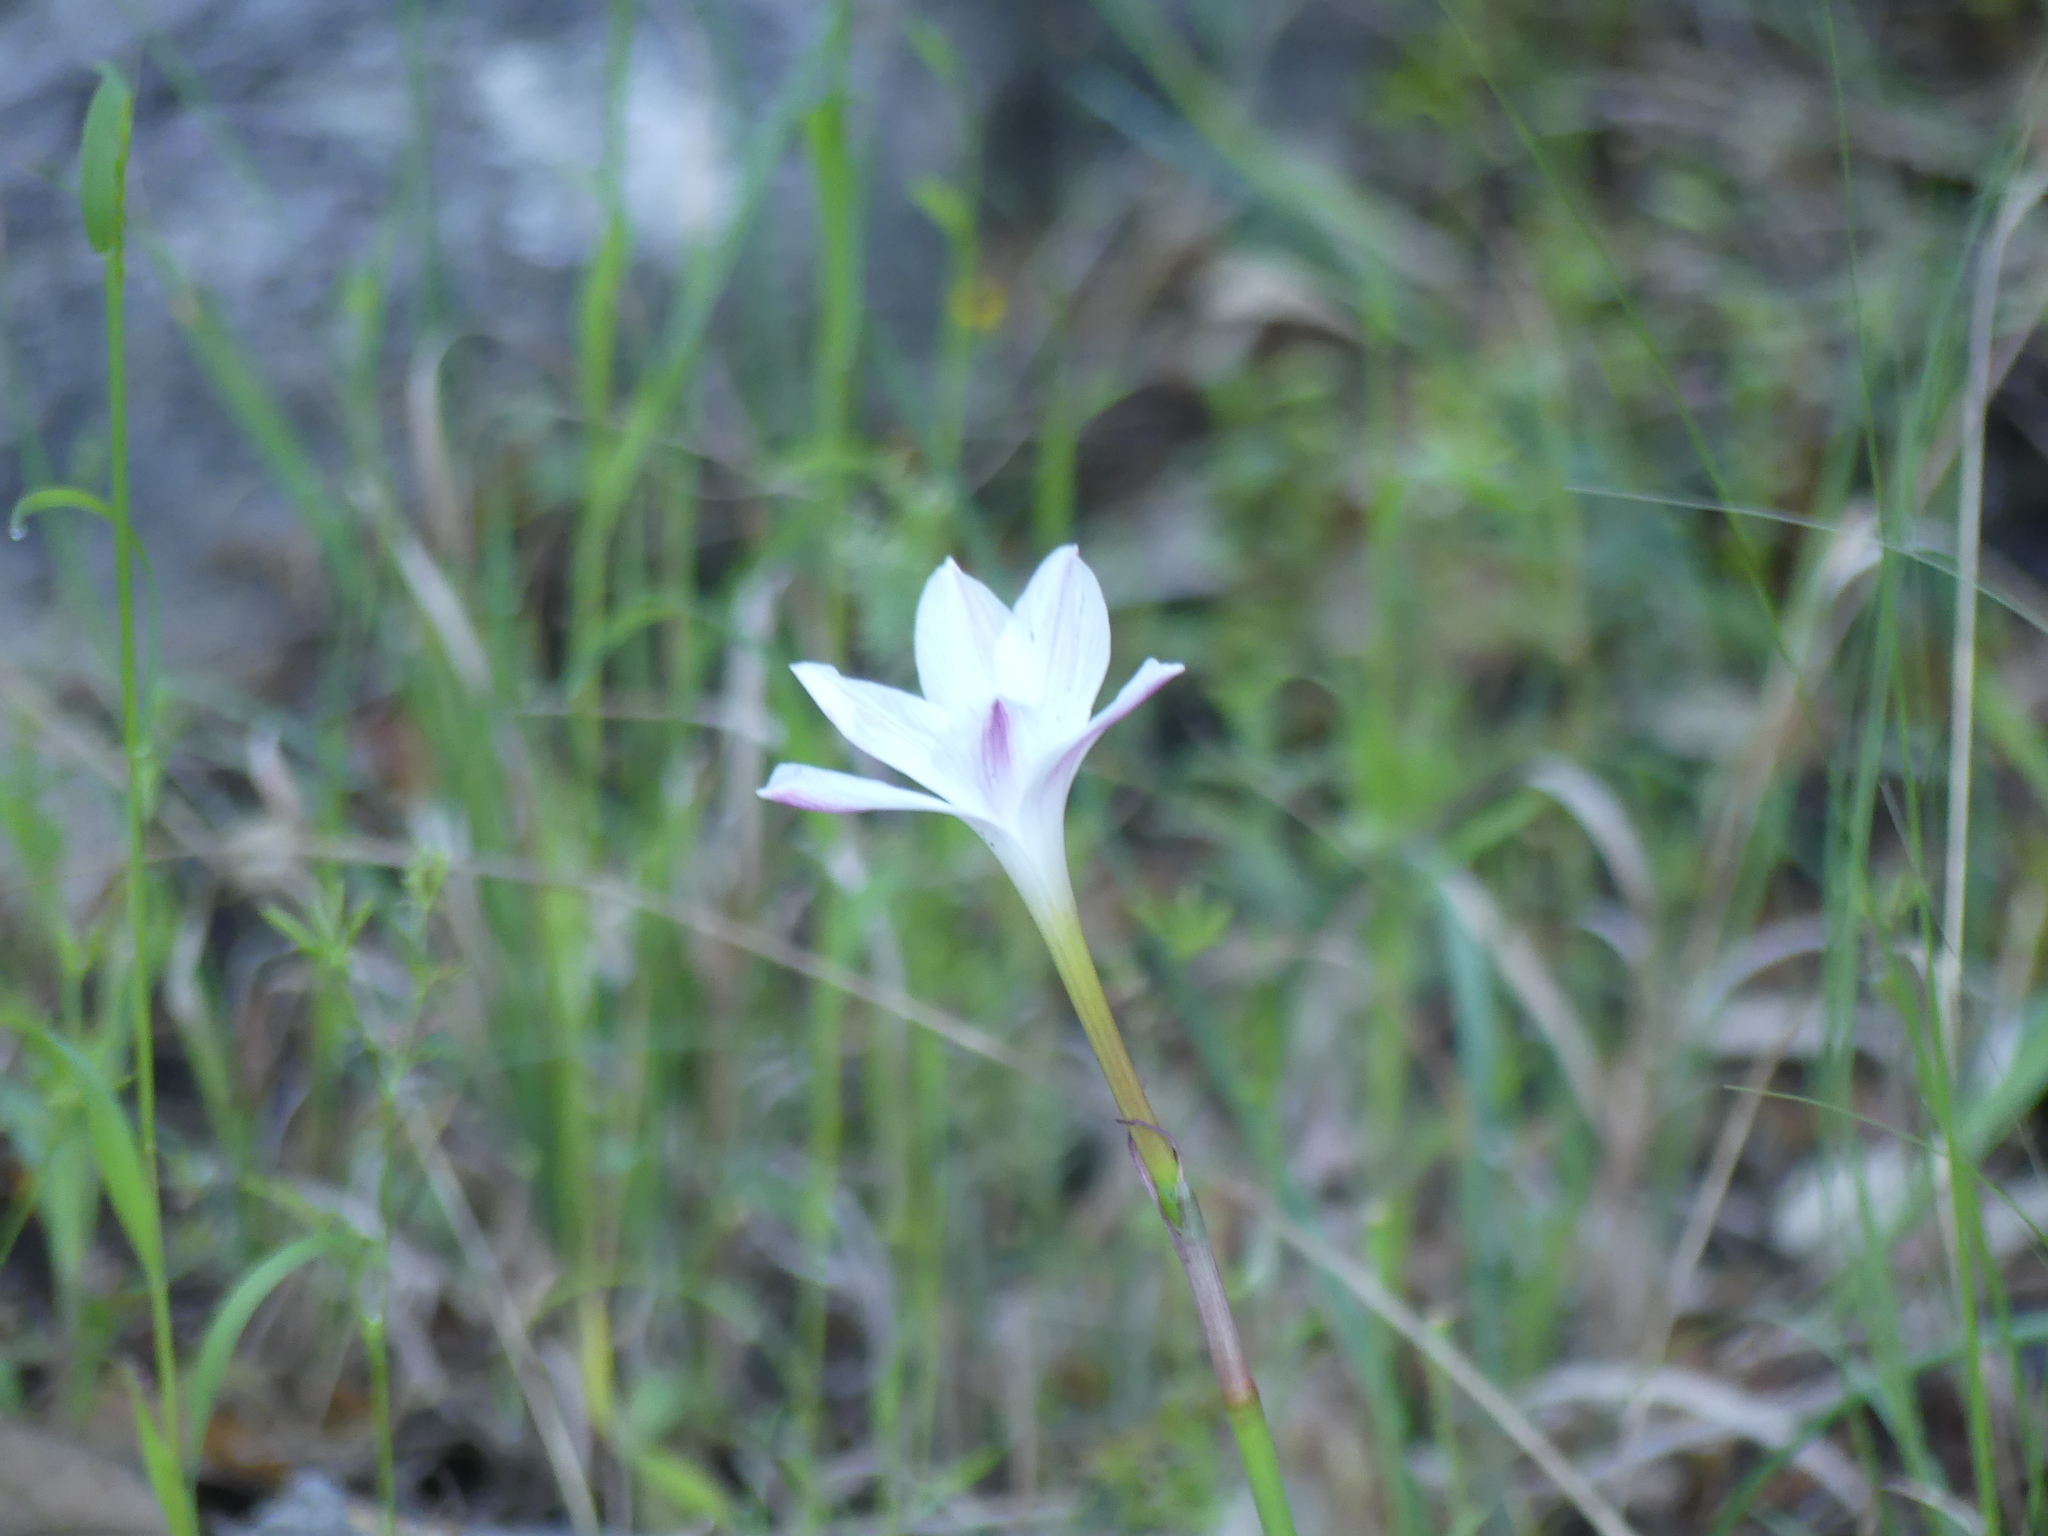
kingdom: Plantae
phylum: Tracheophyta
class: Liliopsida
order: Asparagales
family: Amaryllidaceae
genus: Zephyranthes
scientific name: Zephyranthes drummondii
